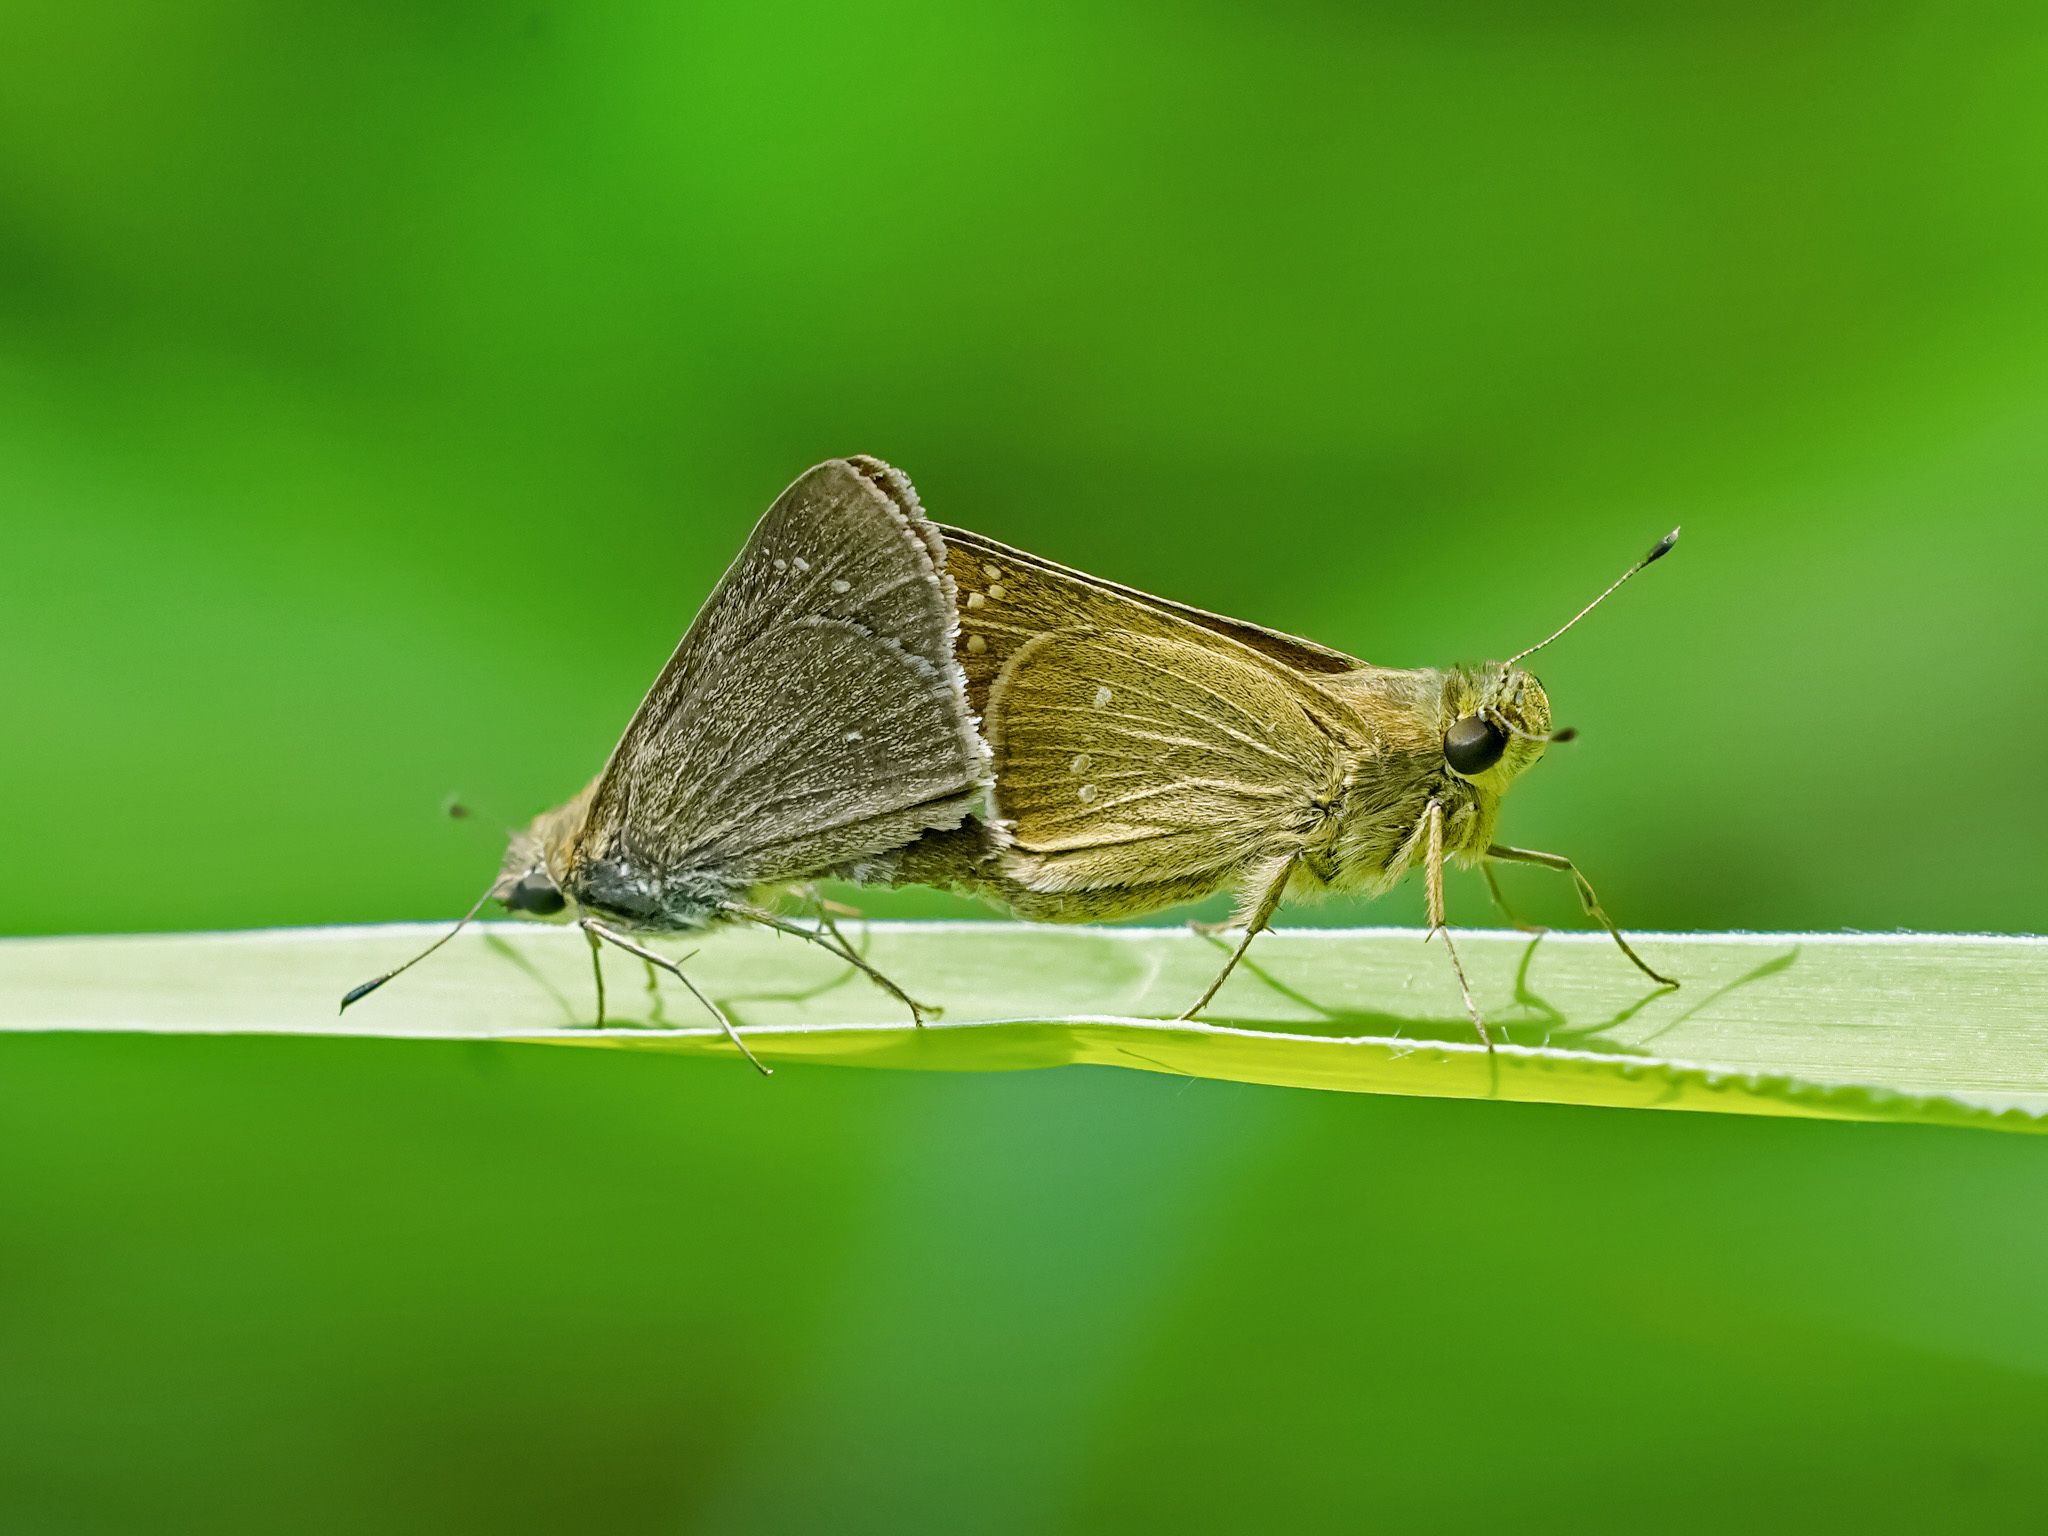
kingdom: Animalia
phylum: Arthropoda
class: Insecta
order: Lepidoptera
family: Hesperiidae
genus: Borbo
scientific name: Borbo cinnara
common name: Formosan swift
